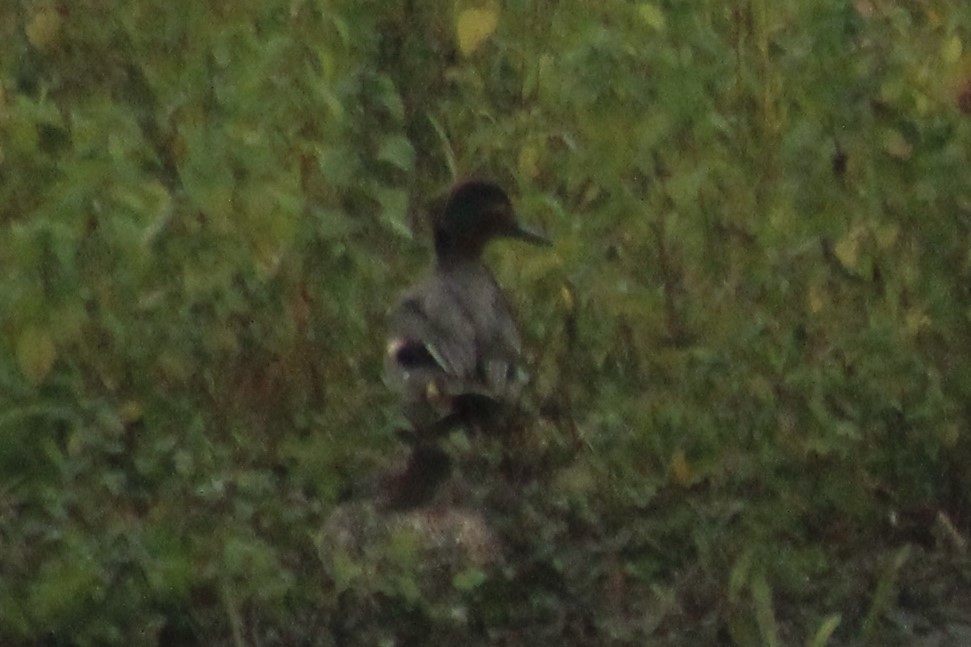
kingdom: Animalia
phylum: Chordata
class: Aves
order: Anseriformes
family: Anatidae
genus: Anas
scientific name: Anas crecca
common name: Eurasian teal
